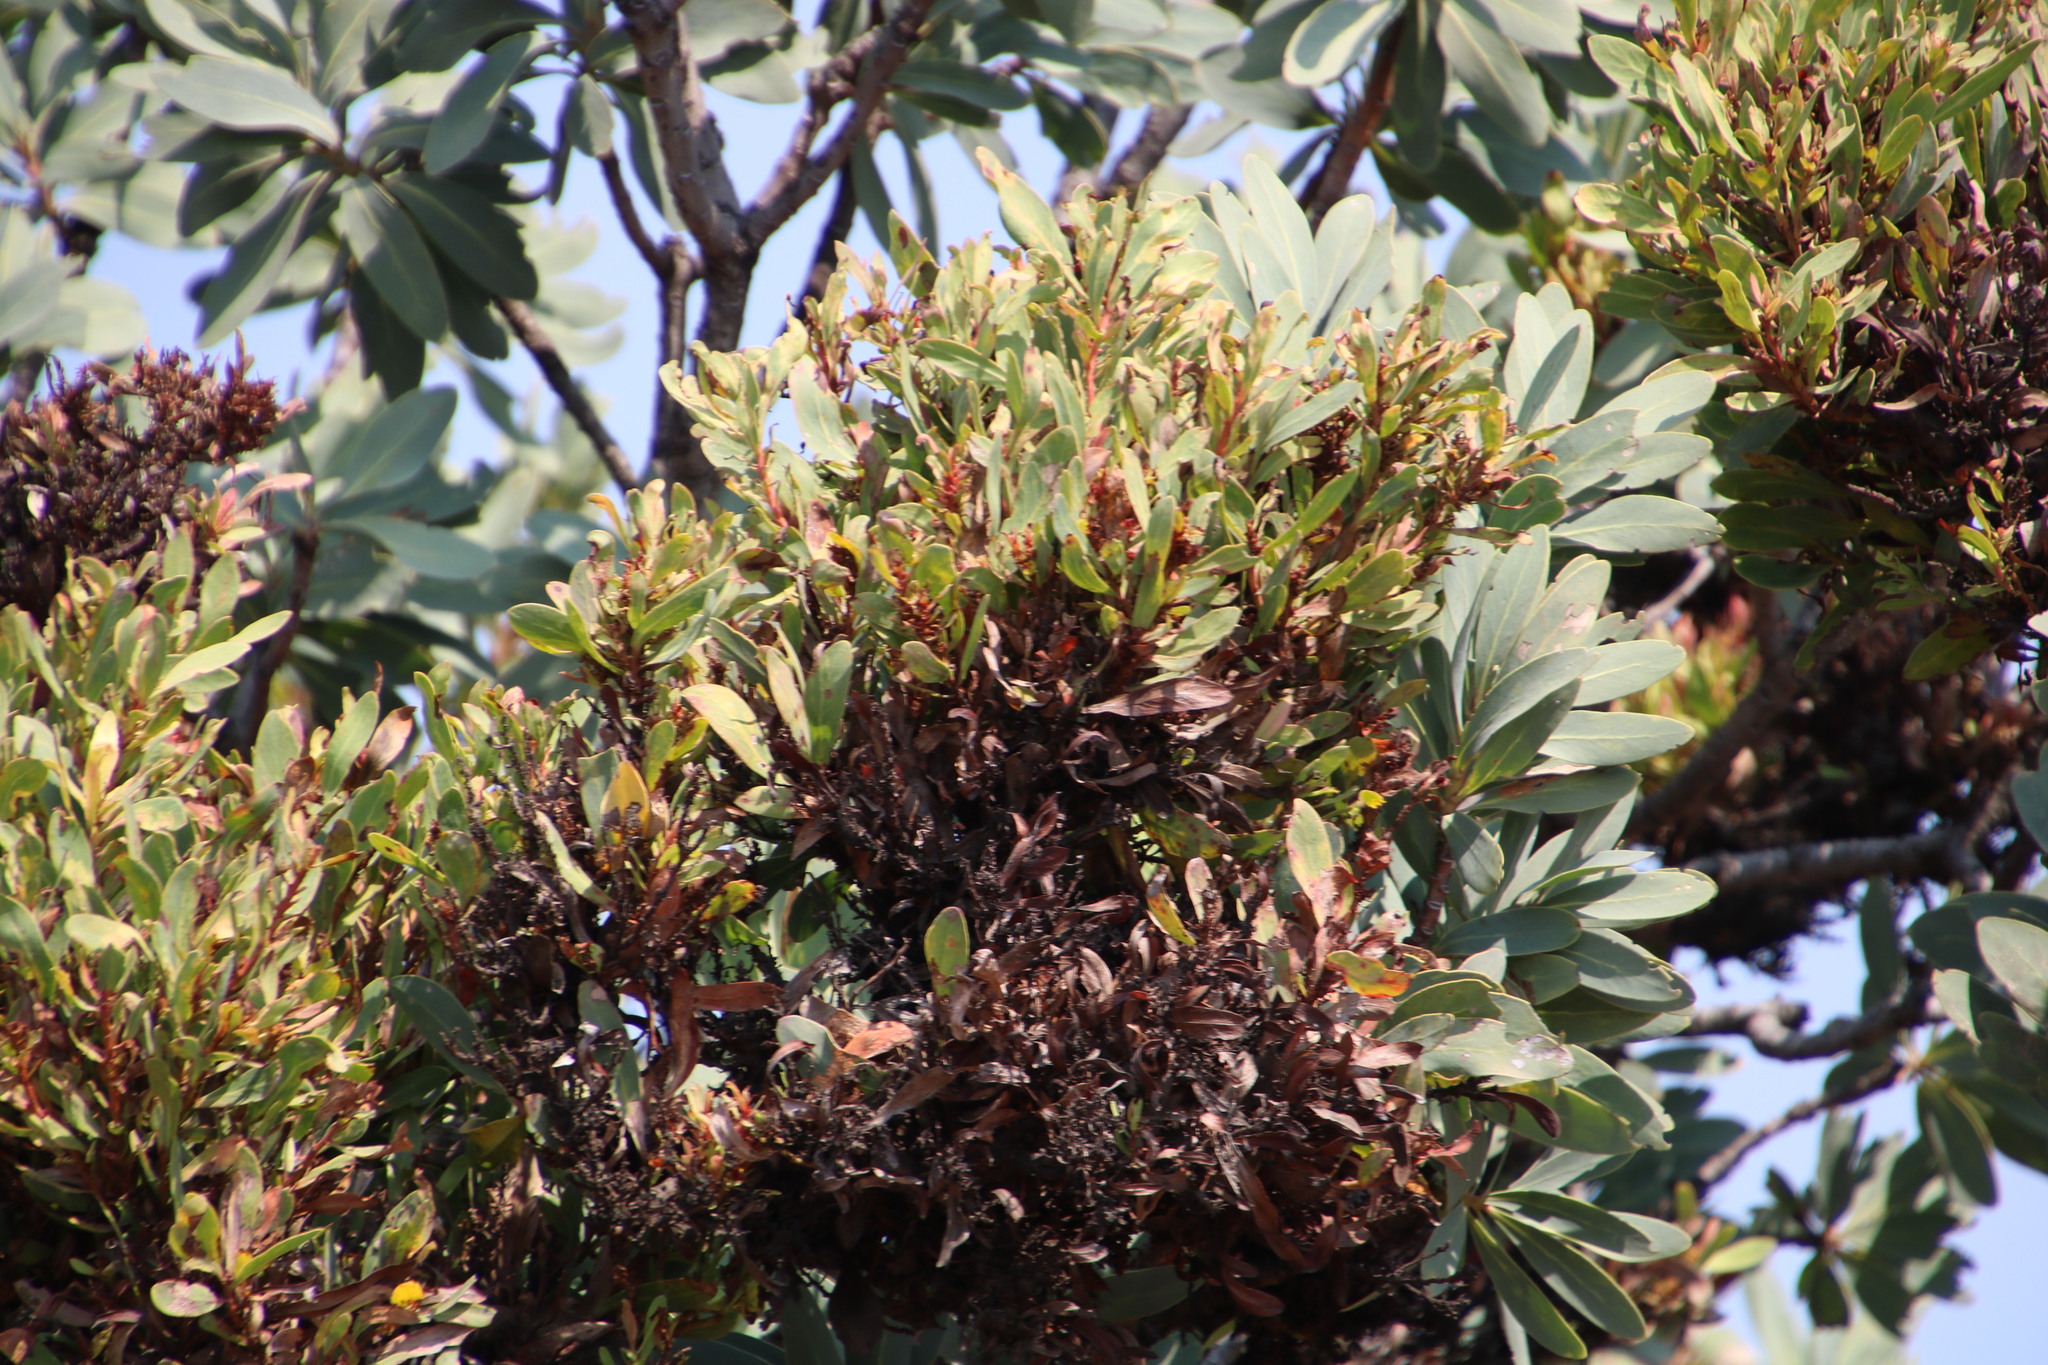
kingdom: Plantae
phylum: Tracheophyta
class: Magnoliopsida
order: Proteales
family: Proteaceae
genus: Protea
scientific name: Protea caffra
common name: Common sugarbush
